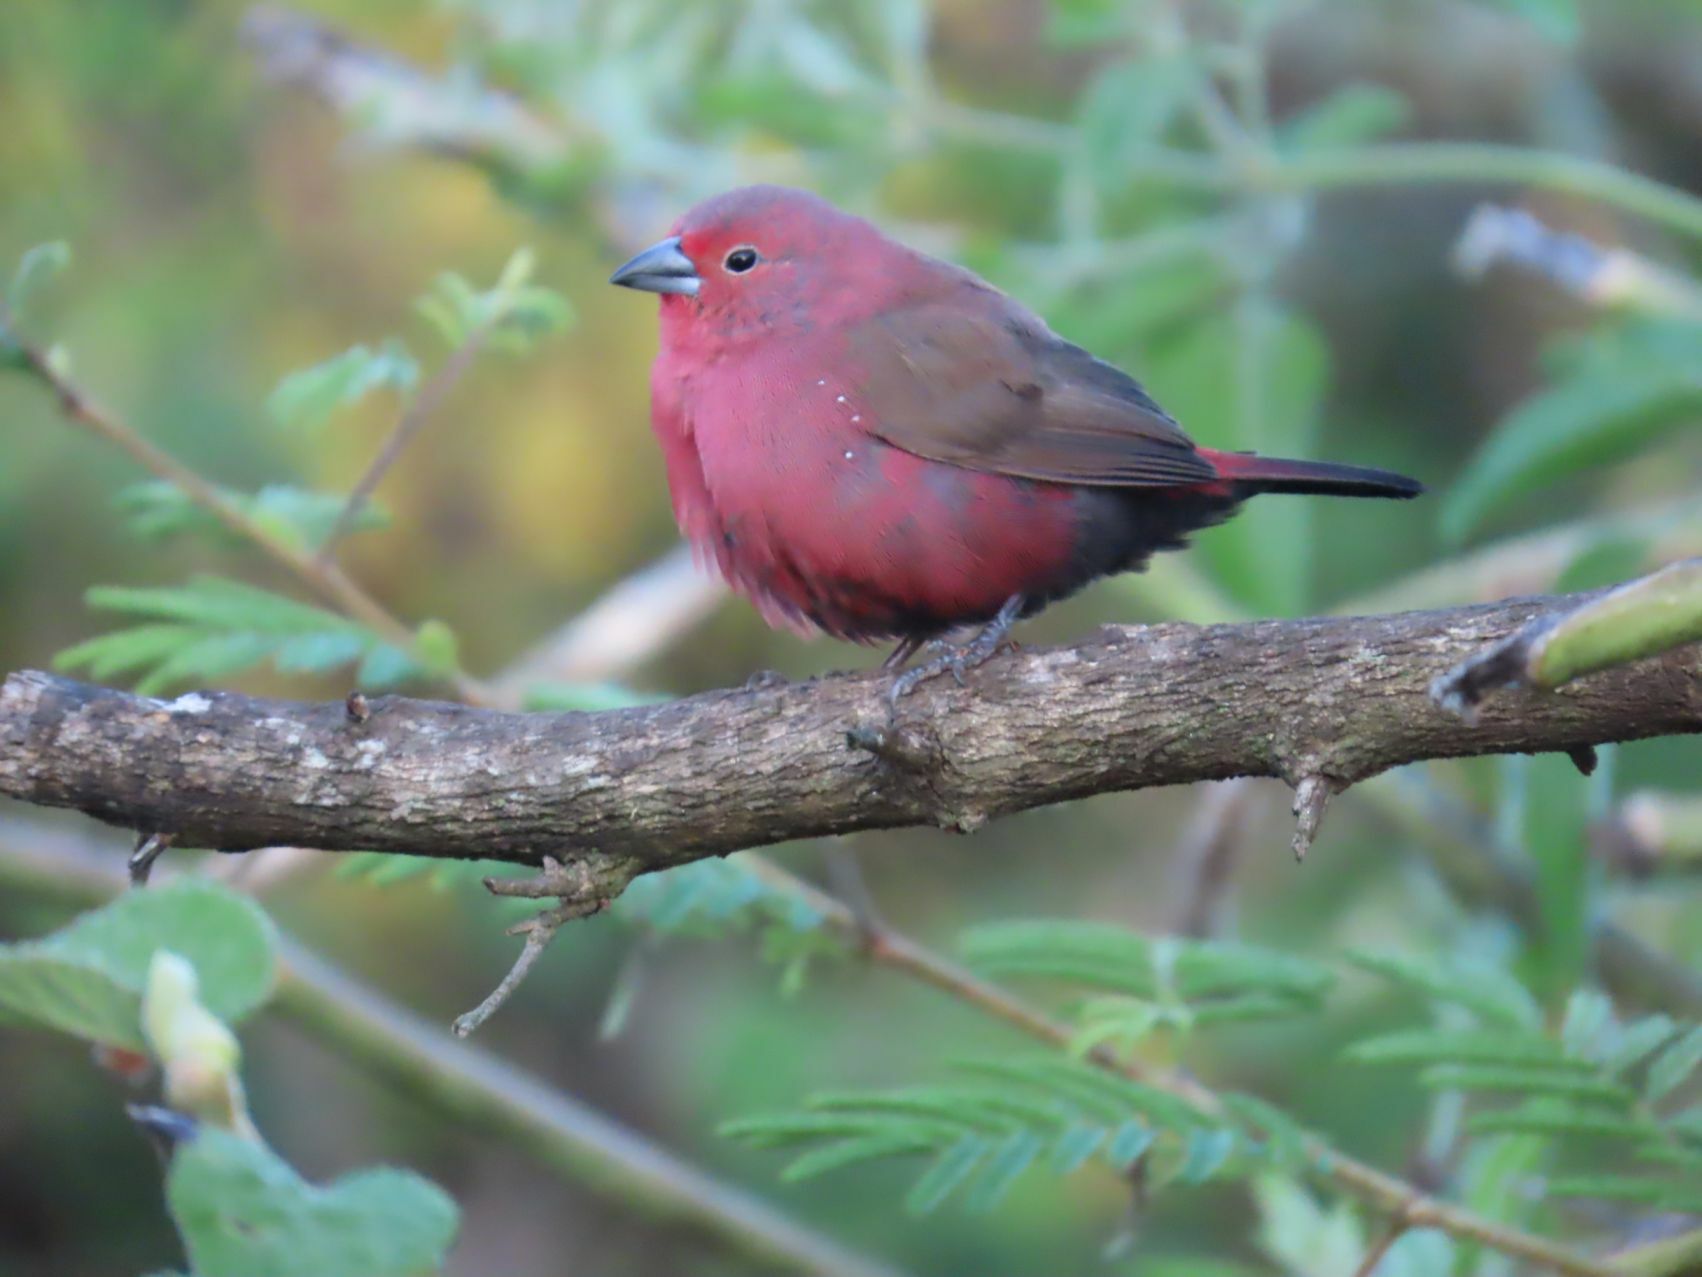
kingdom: Animalia
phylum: Chordata
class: Aves
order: Passeriformes
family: Estrildidae
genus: Lagonosticta
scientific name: Lagonosticta rhodopareia
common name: Jameson's firefinch
